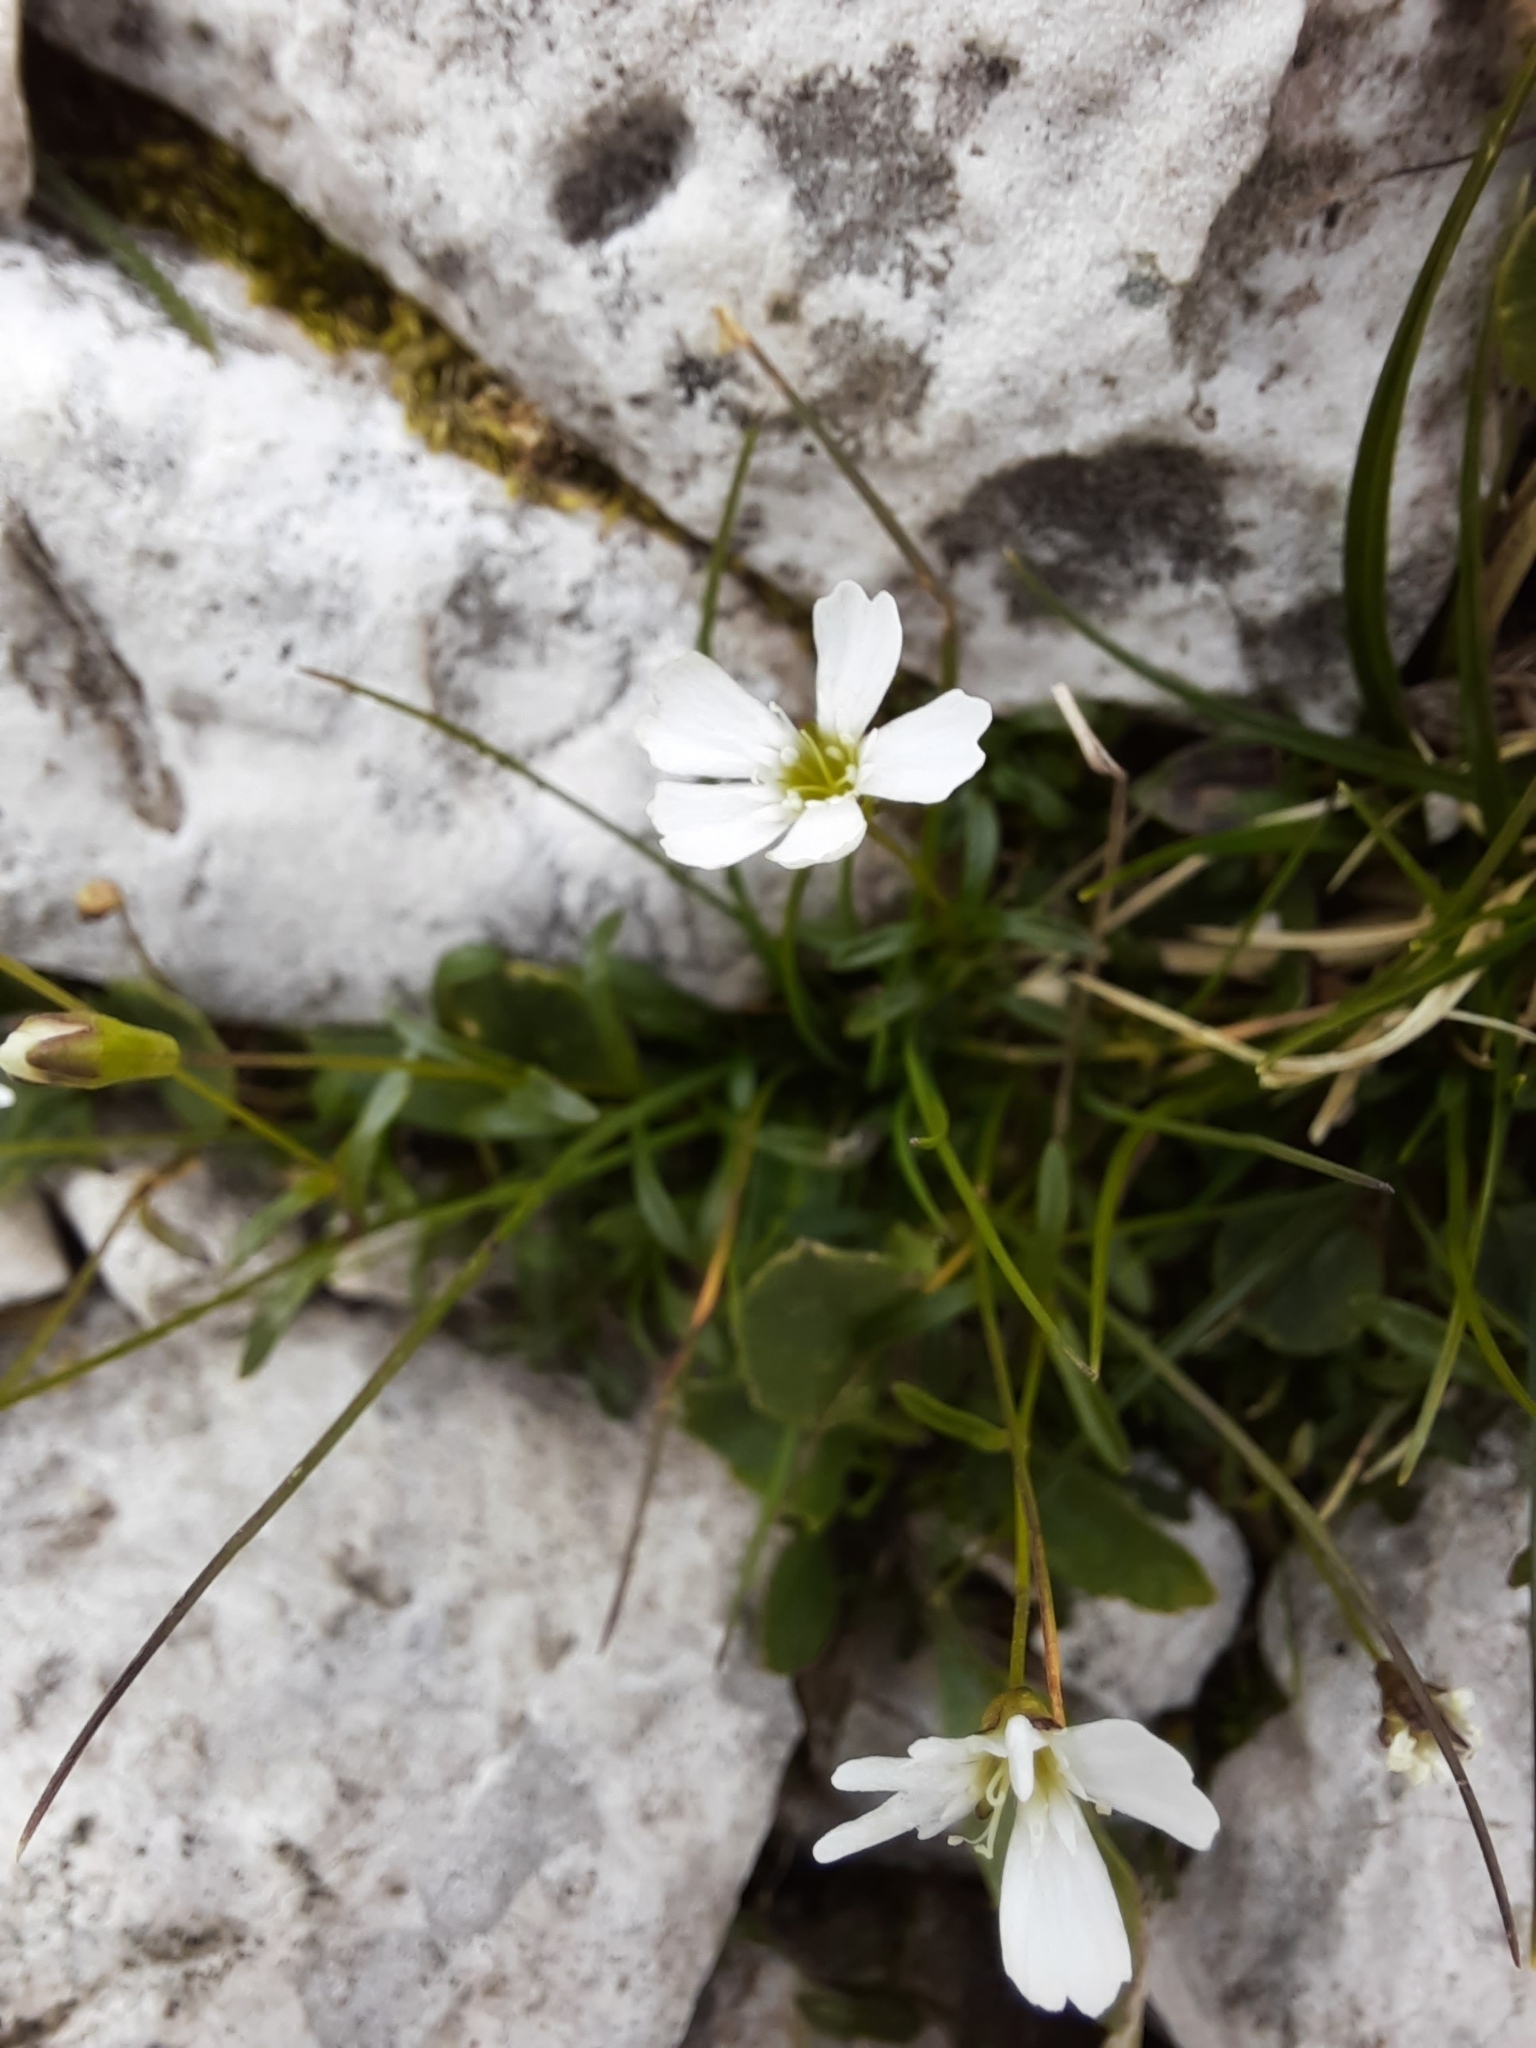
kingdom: Plantae
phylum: Tracheophyta
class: Magnoliopsida
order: Caryophyllales
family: Caryophyllaceae
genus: Heliosperma
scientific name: Heliosperma pusillum
